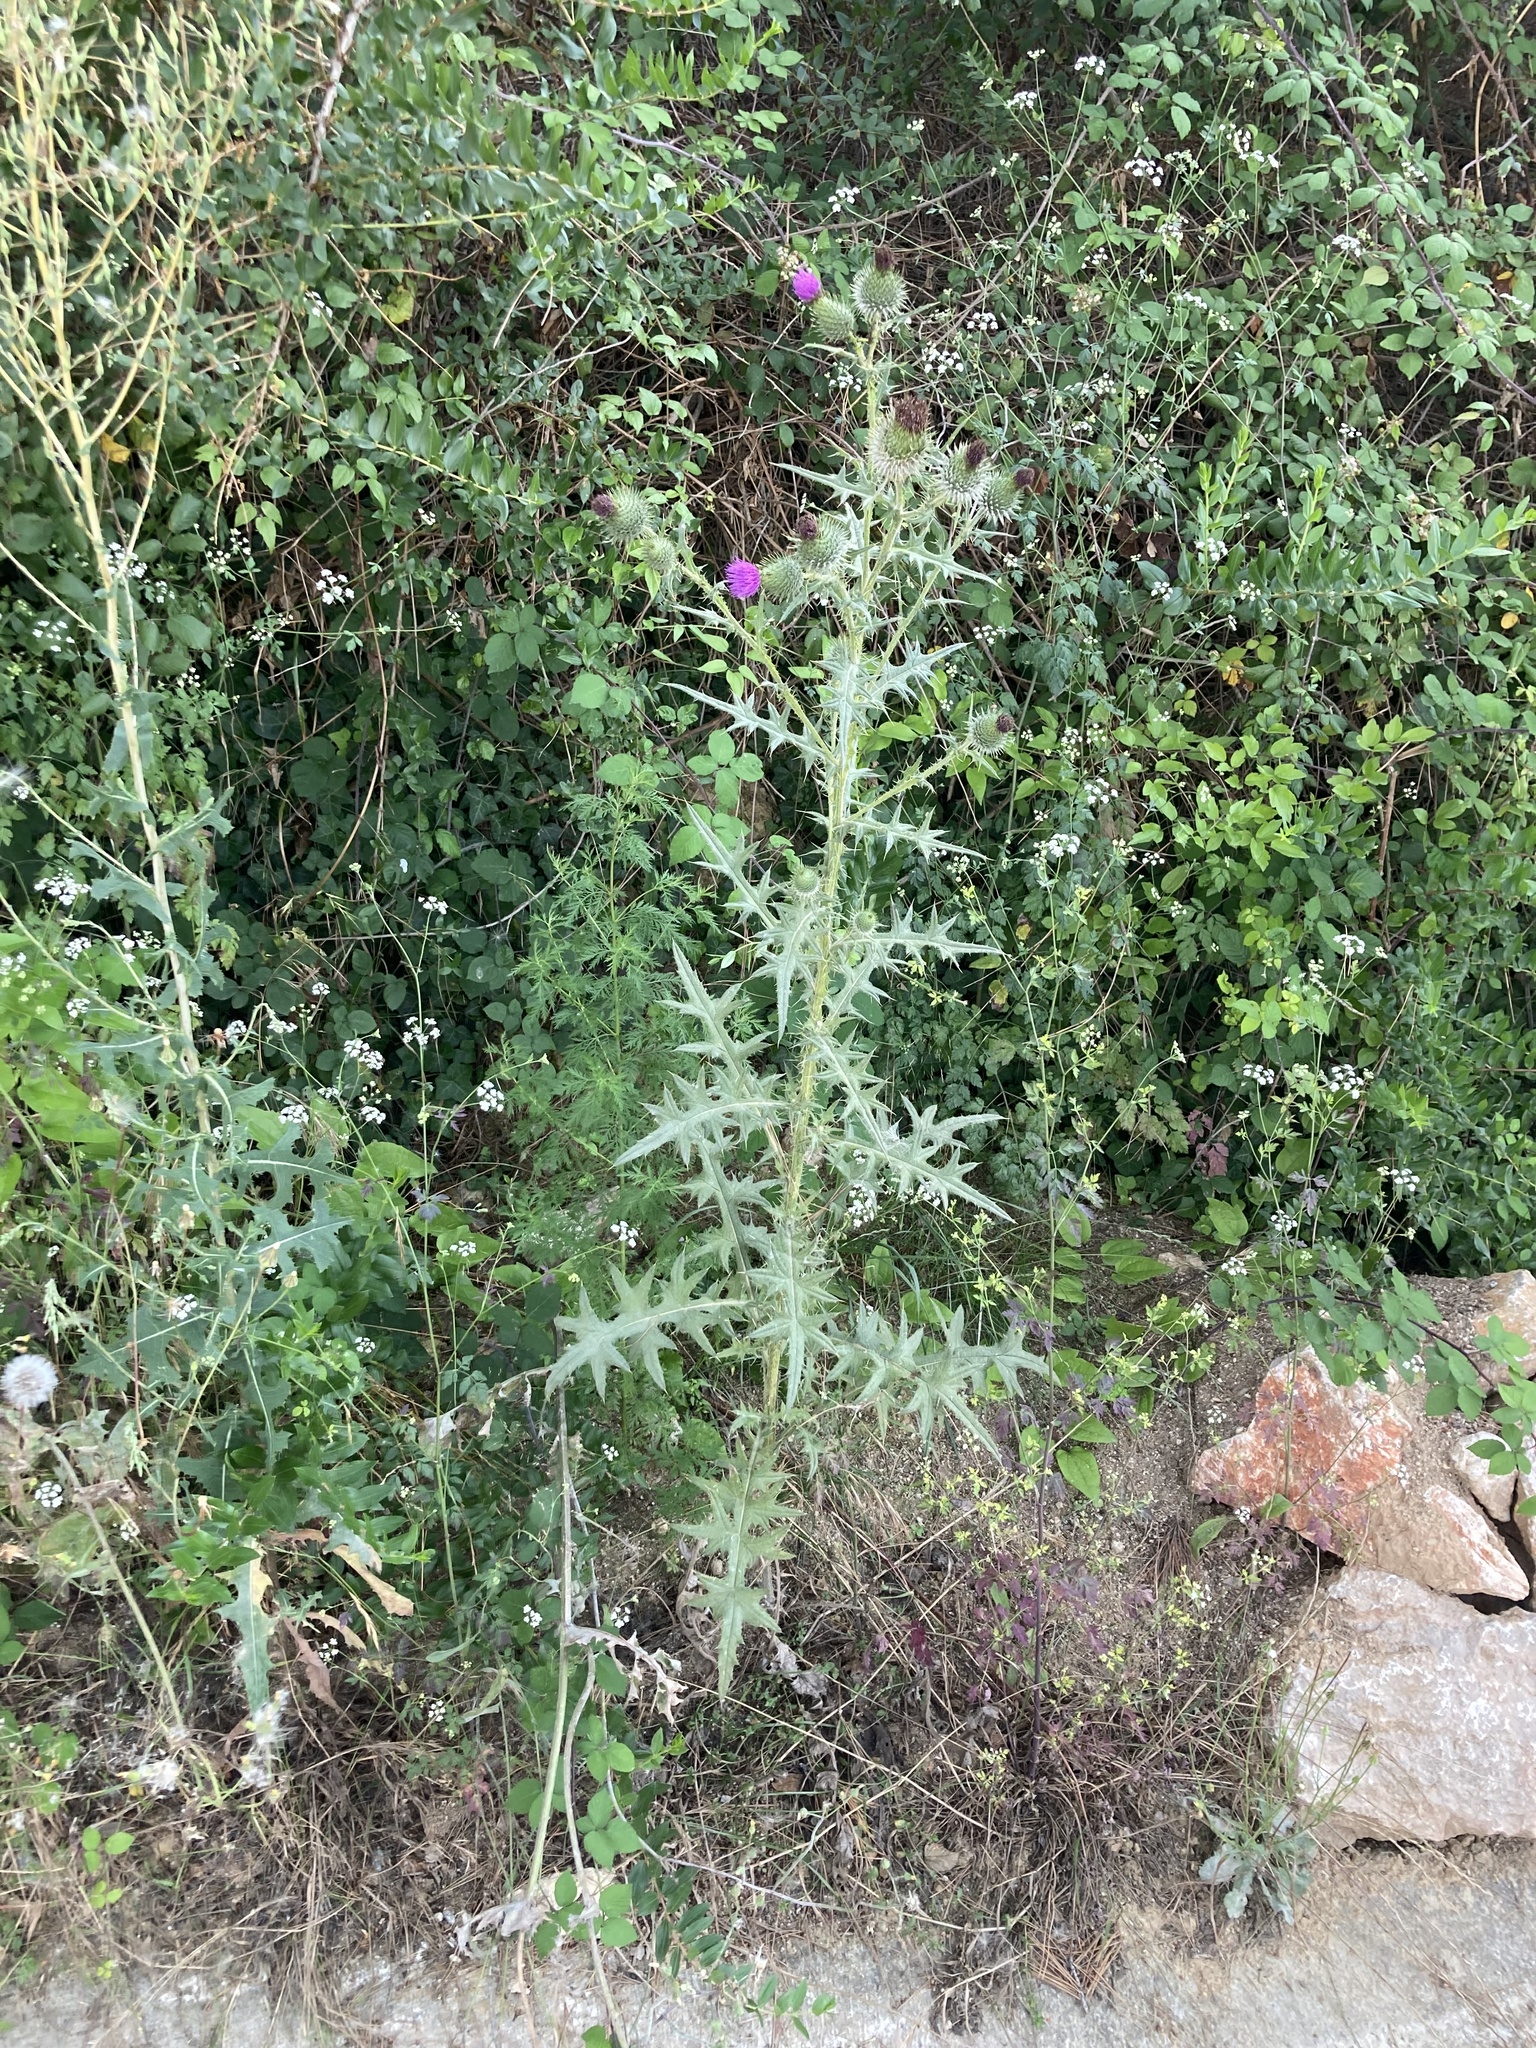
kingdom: Plantae
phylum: Tracheophyta
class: Magnoliopsida
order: Asterales
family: Asteraceae
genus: Cirsium
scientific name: Cirsium vulgare
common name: Bull thistle
